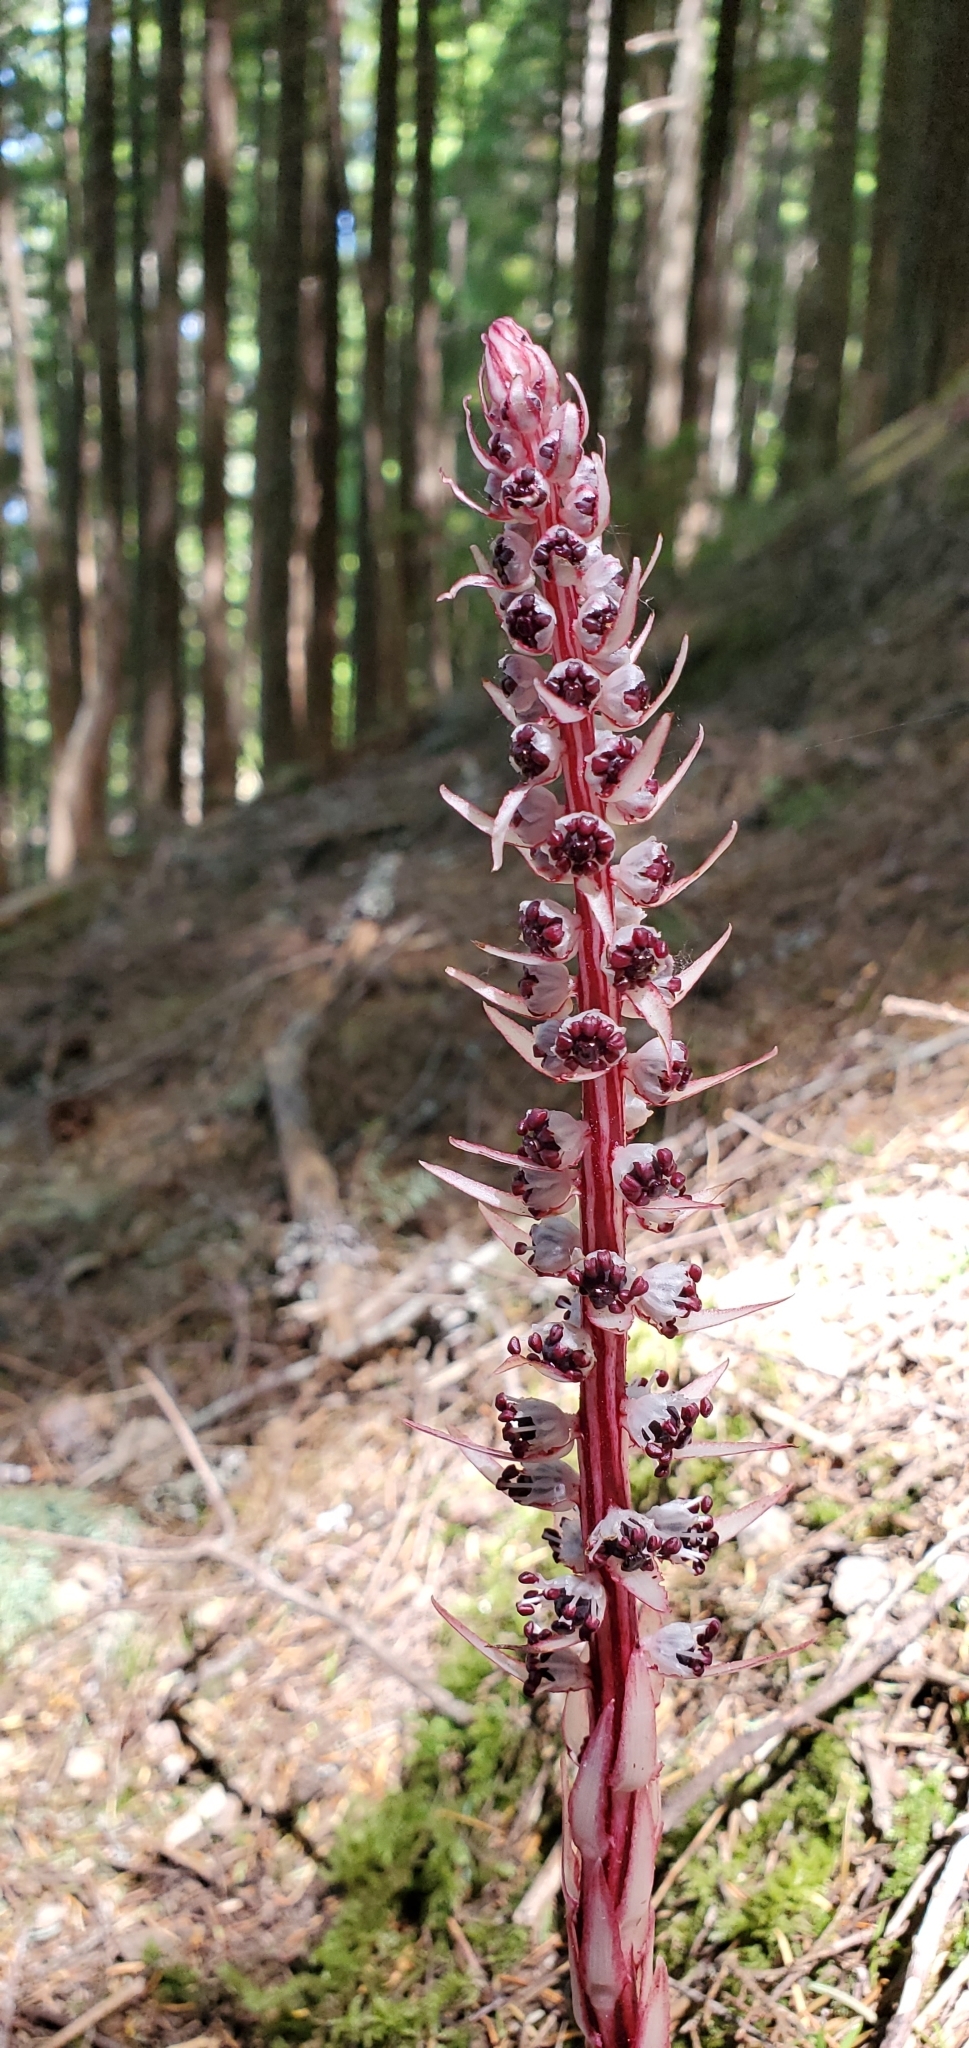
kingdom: Plantae
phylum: Tracheophyta
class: Magnoliopsida
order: Ericales
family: Ericaceae
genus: Allotropa
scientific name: Allotropa virgata
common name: Candy-striped allotropa
